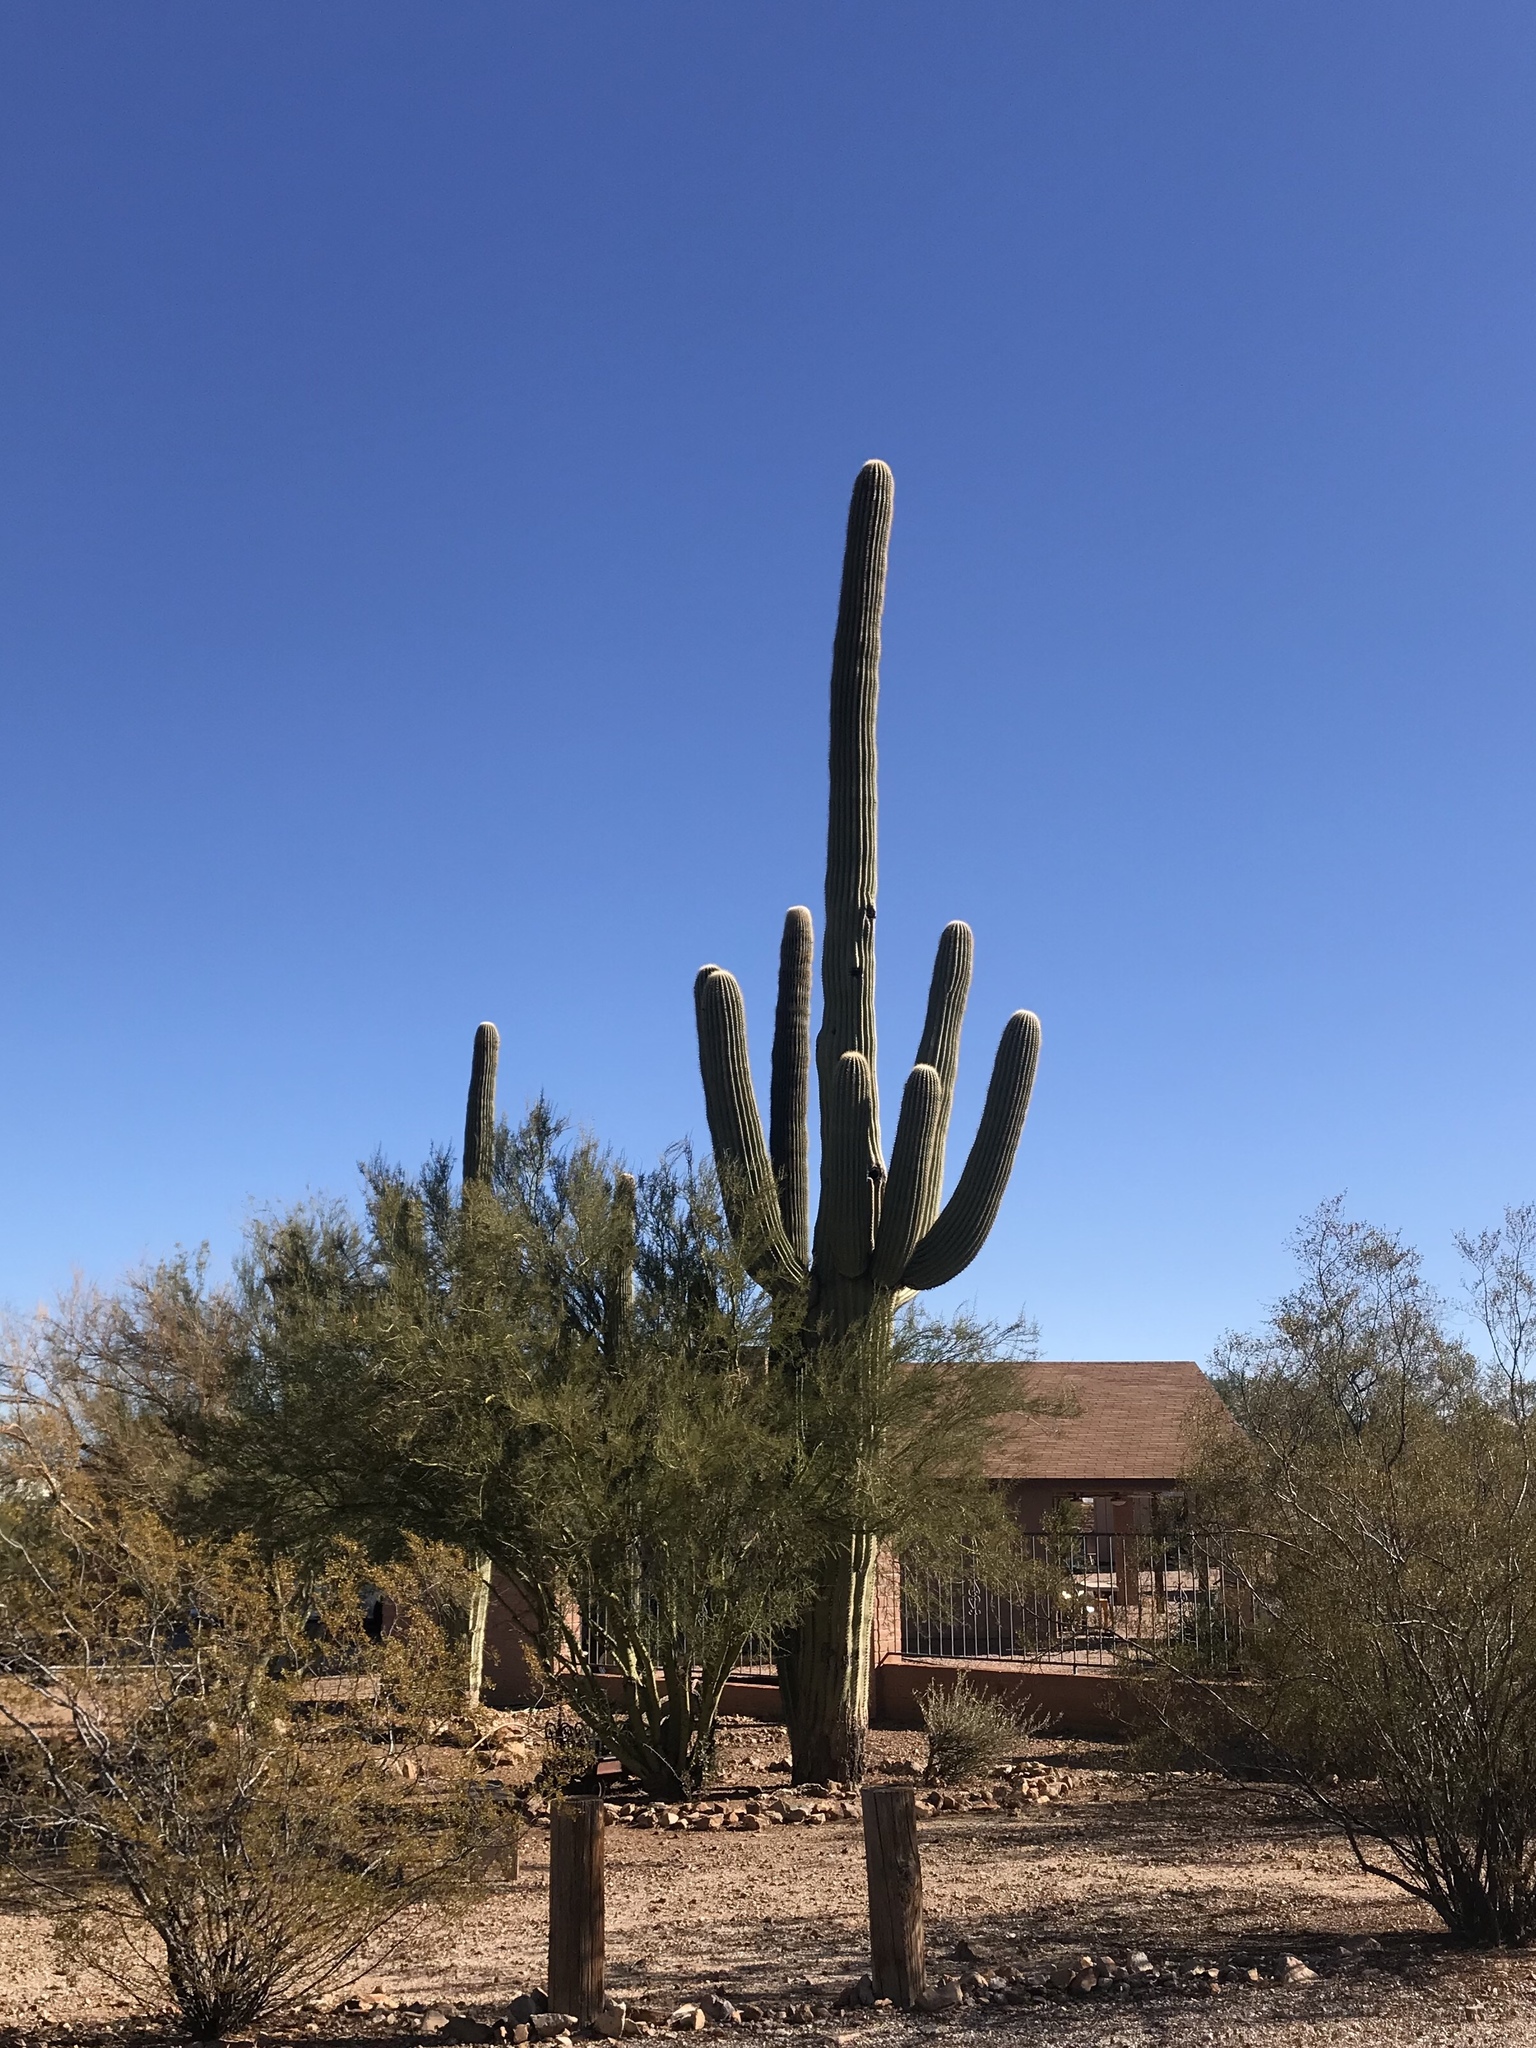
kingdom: Plantae
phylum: Tracheophyta
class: Magnoliopsida
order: Caryophyllales
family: Cactaceae
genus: Carnegiea
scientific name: Carnegiea gigantea
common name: Saguaro
